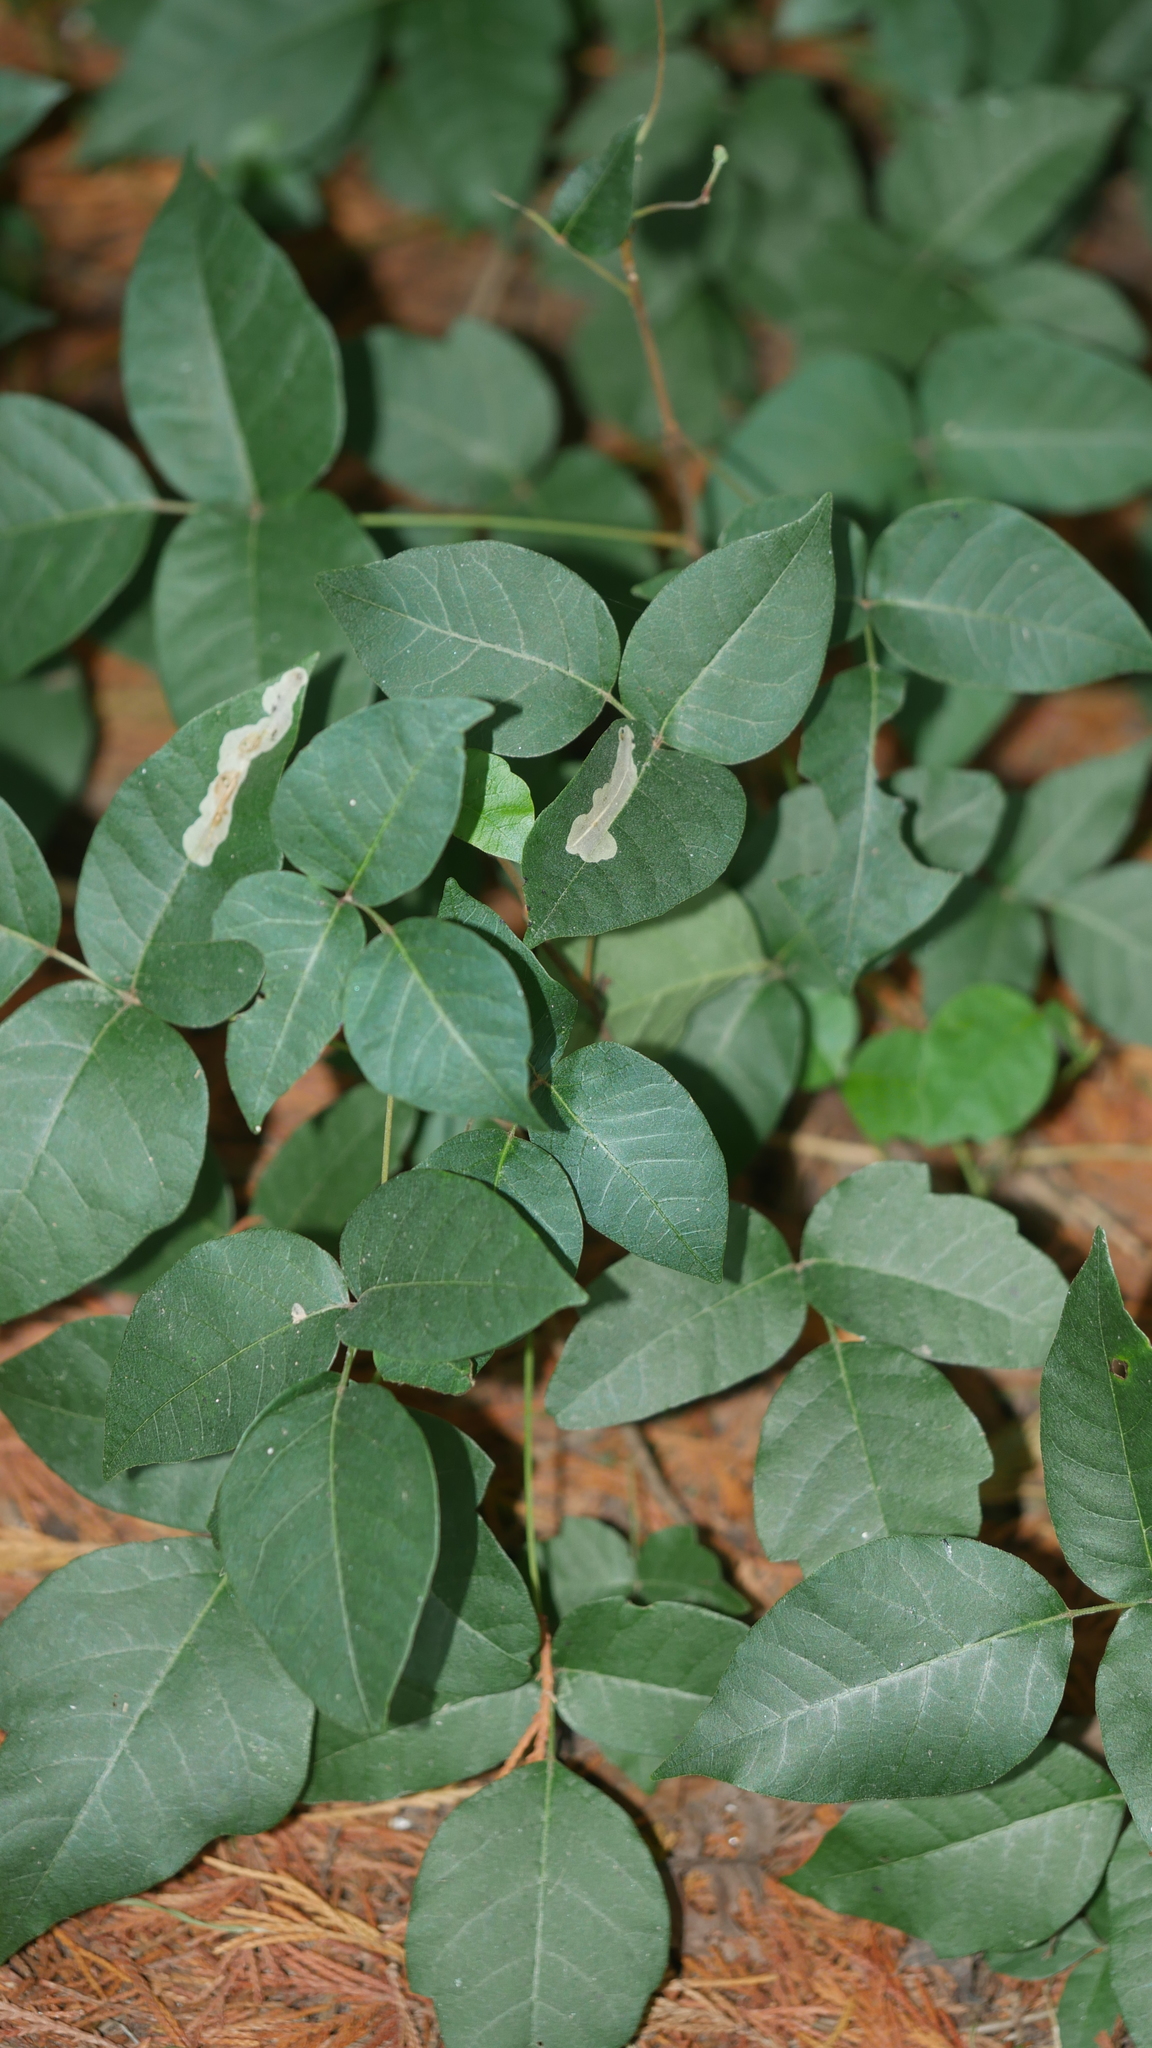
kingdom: Plantae
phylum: Tracheophyta
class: Magnoliopsida
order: Sapindales
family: Anacardiaceae
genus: Toxicodendron
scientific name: Toxicodendron radicans
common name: Poison ivy
